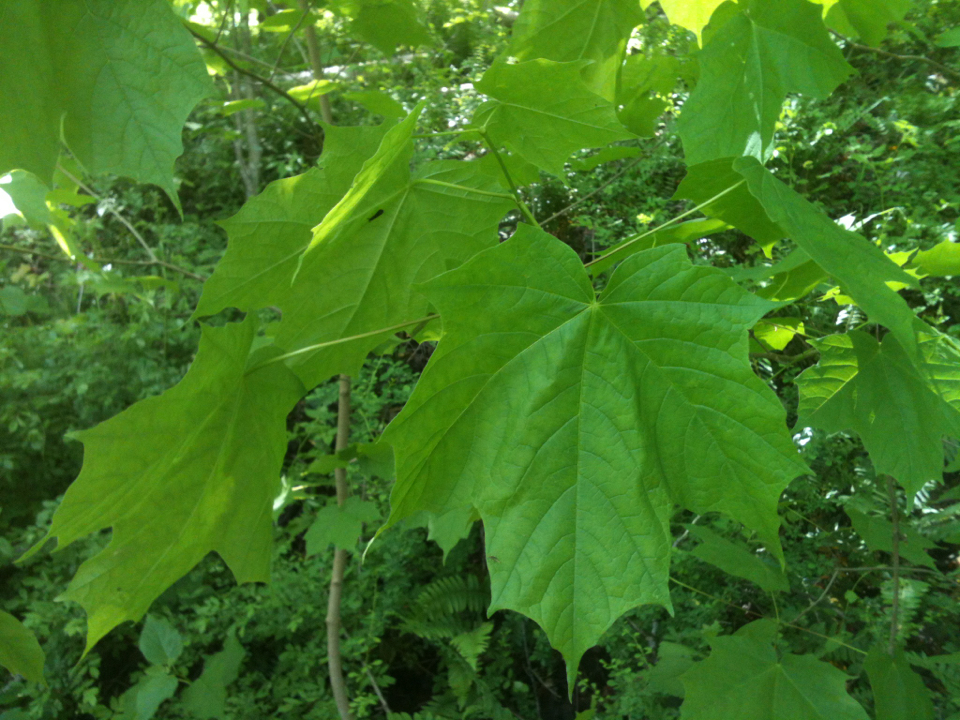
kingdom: Plantae
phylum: Tracheophyta
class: Magnoliopsida
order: Sapindales
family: Sapindaceae
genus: Acer
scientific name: Acer platanoides
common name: Norway maple
